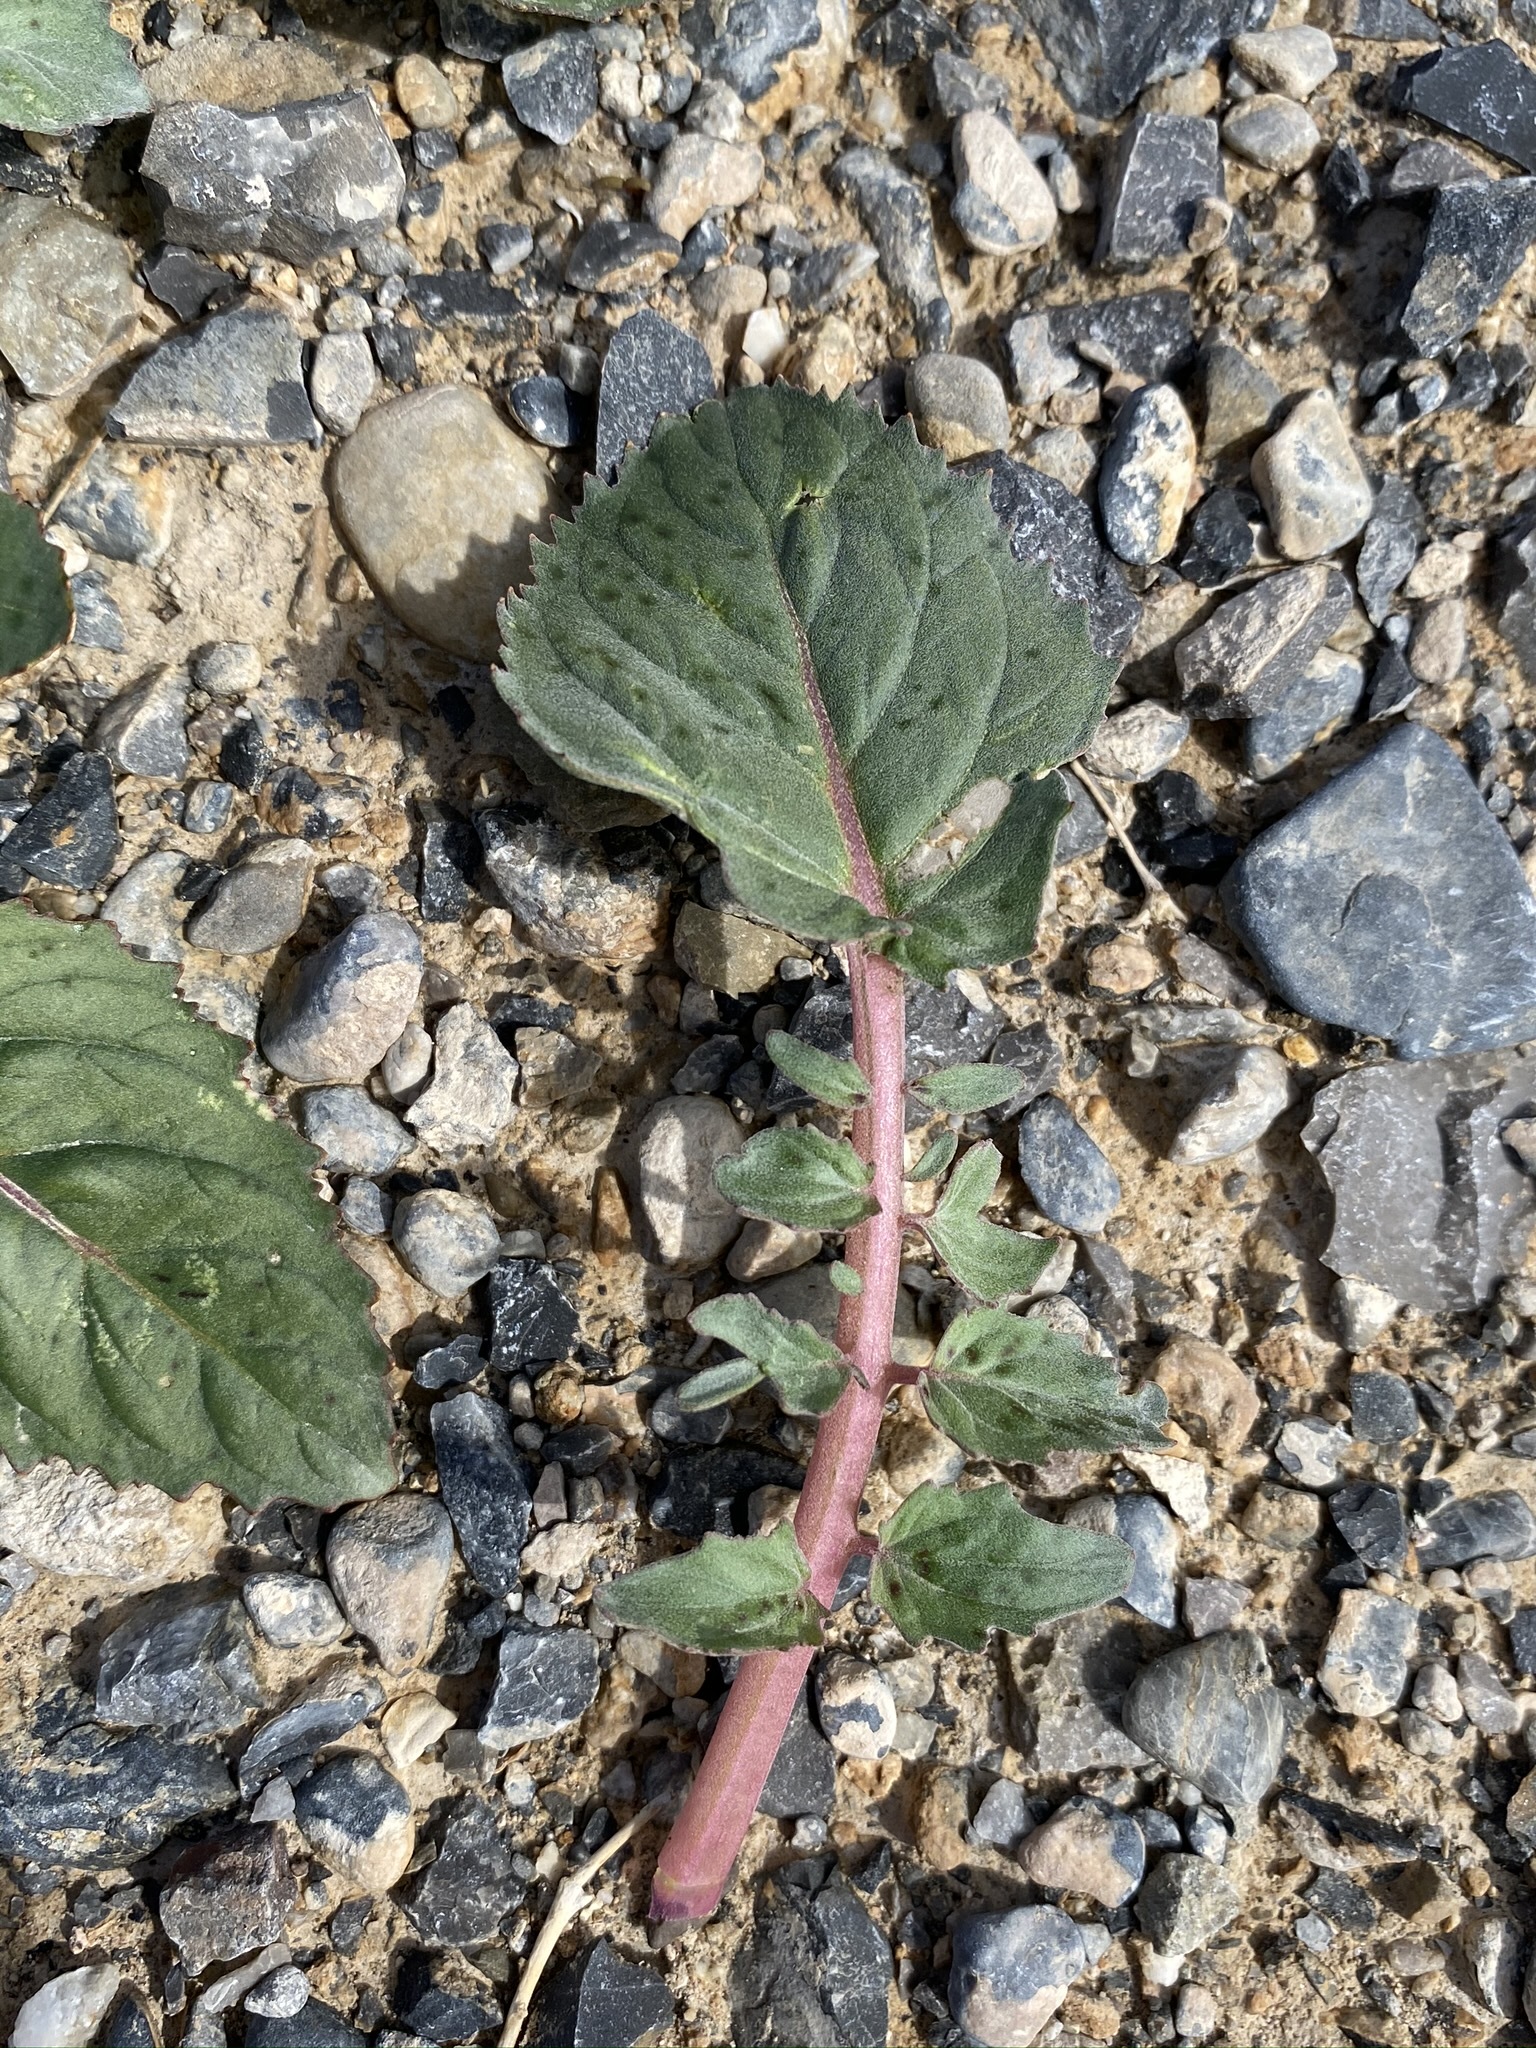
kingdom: Plantae
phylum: Tracheophyta
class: Magnoliopsida
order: Myrtales
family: Onagraceae
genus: Chylismia
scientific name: Chylismia claviformis
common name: Browneyes
